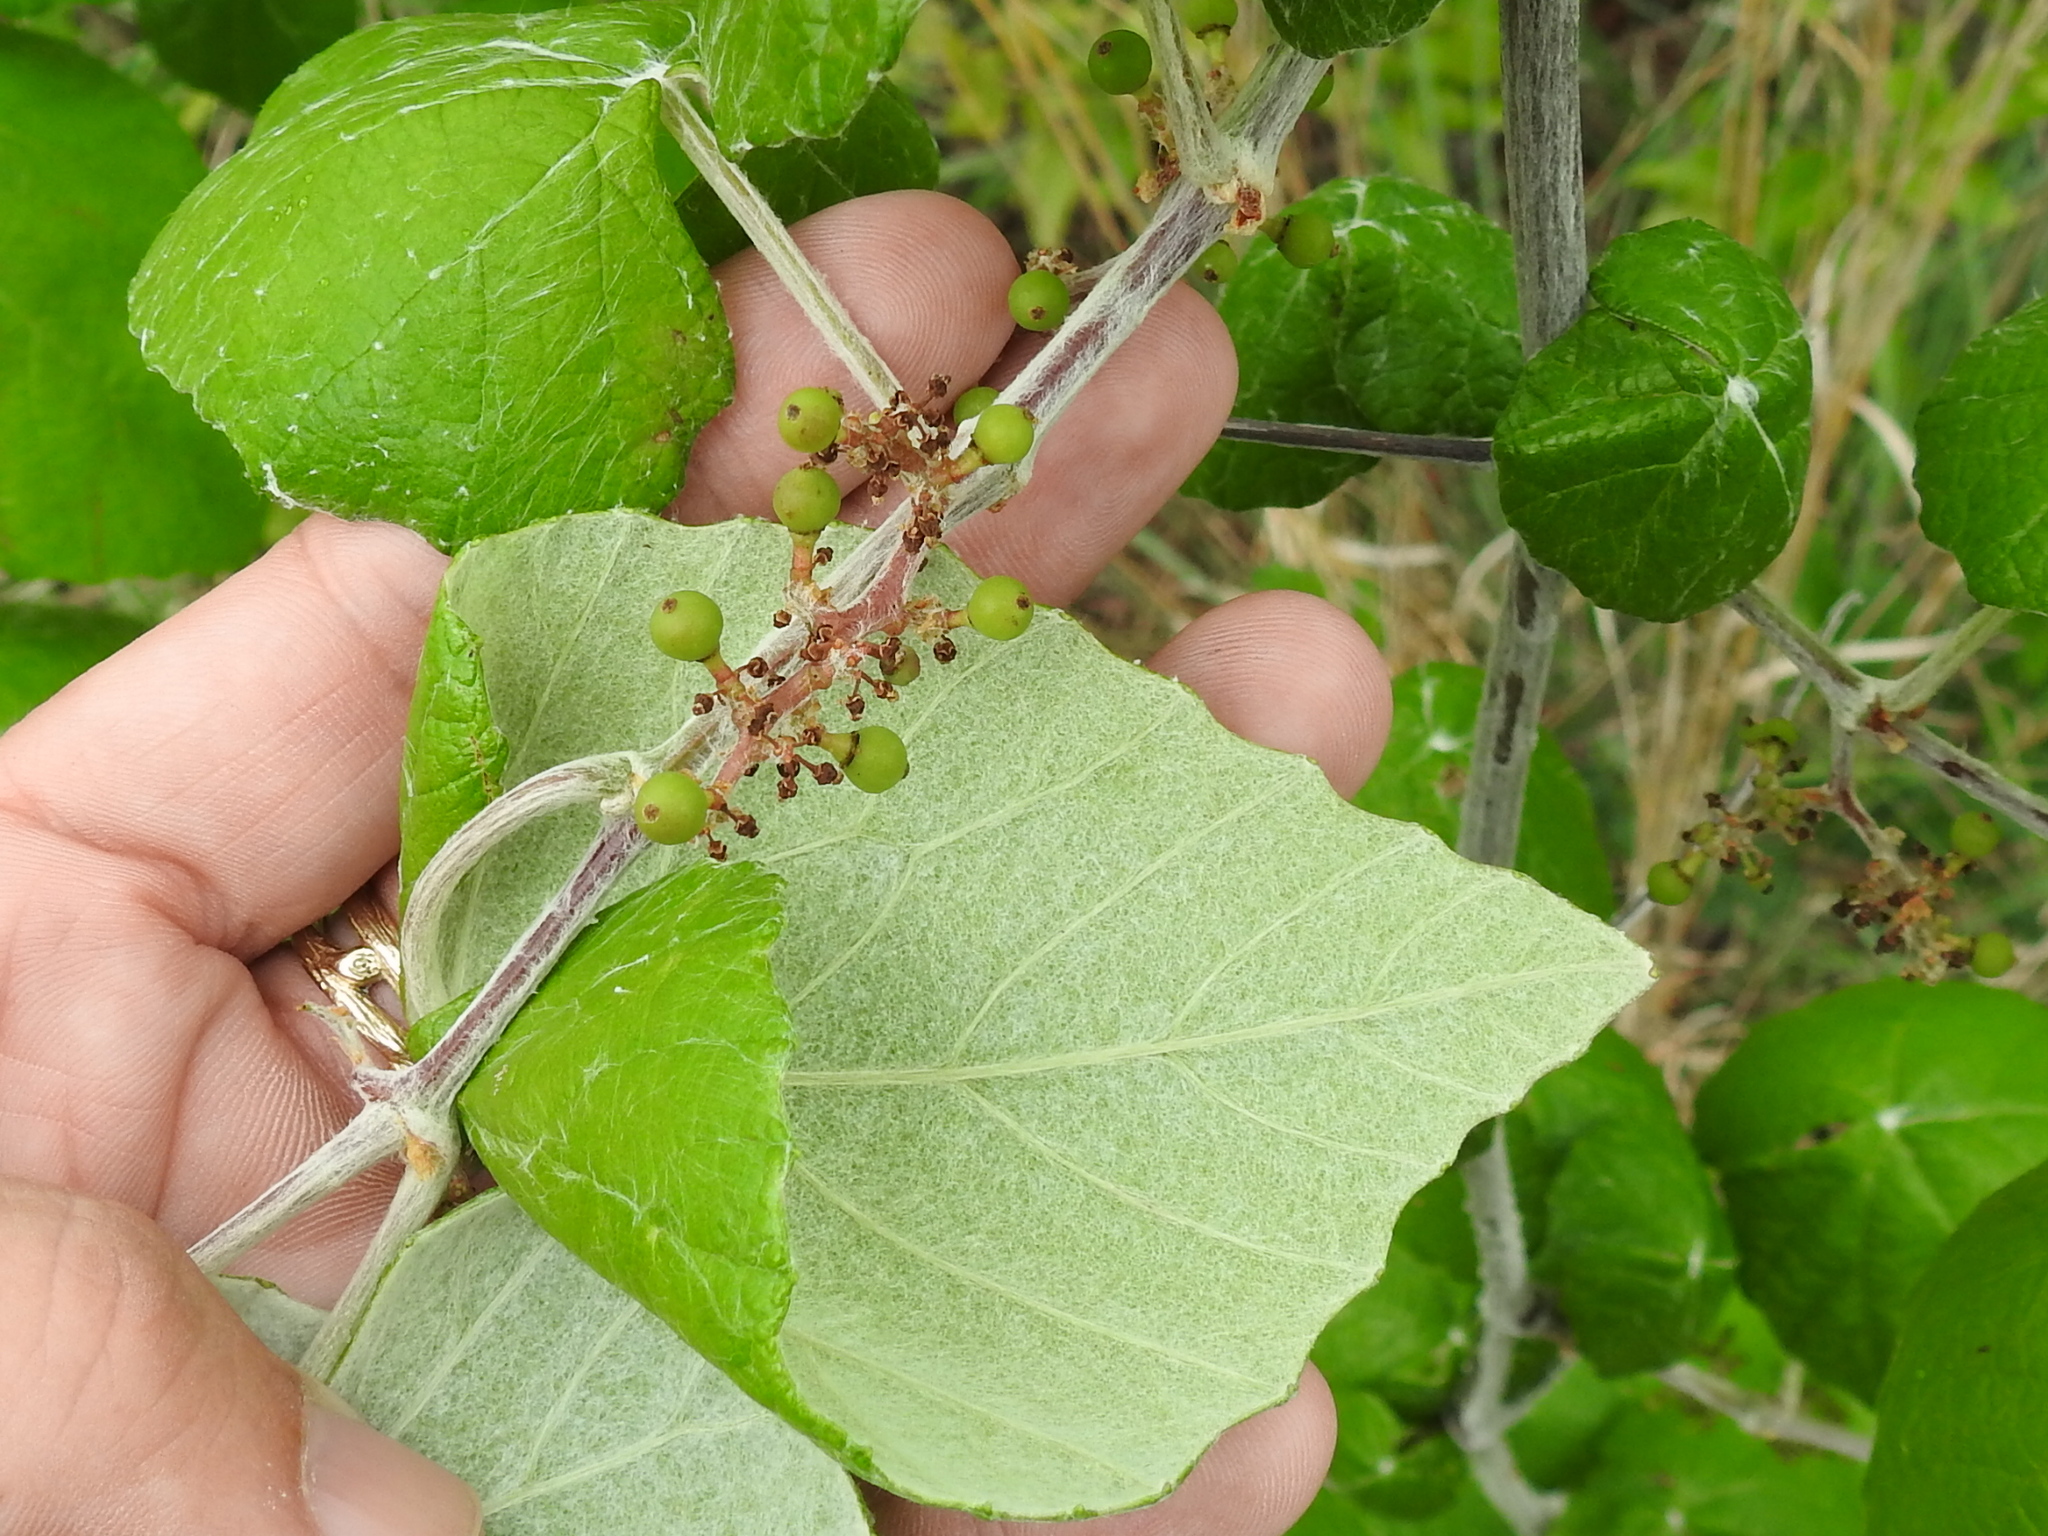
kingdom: Plantae
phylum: Tracheophyta
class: Magnoliopsida
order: Vitales
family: Vitaceae
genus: Vitis
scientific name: Vitis mustangensis
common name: Mustang grape
